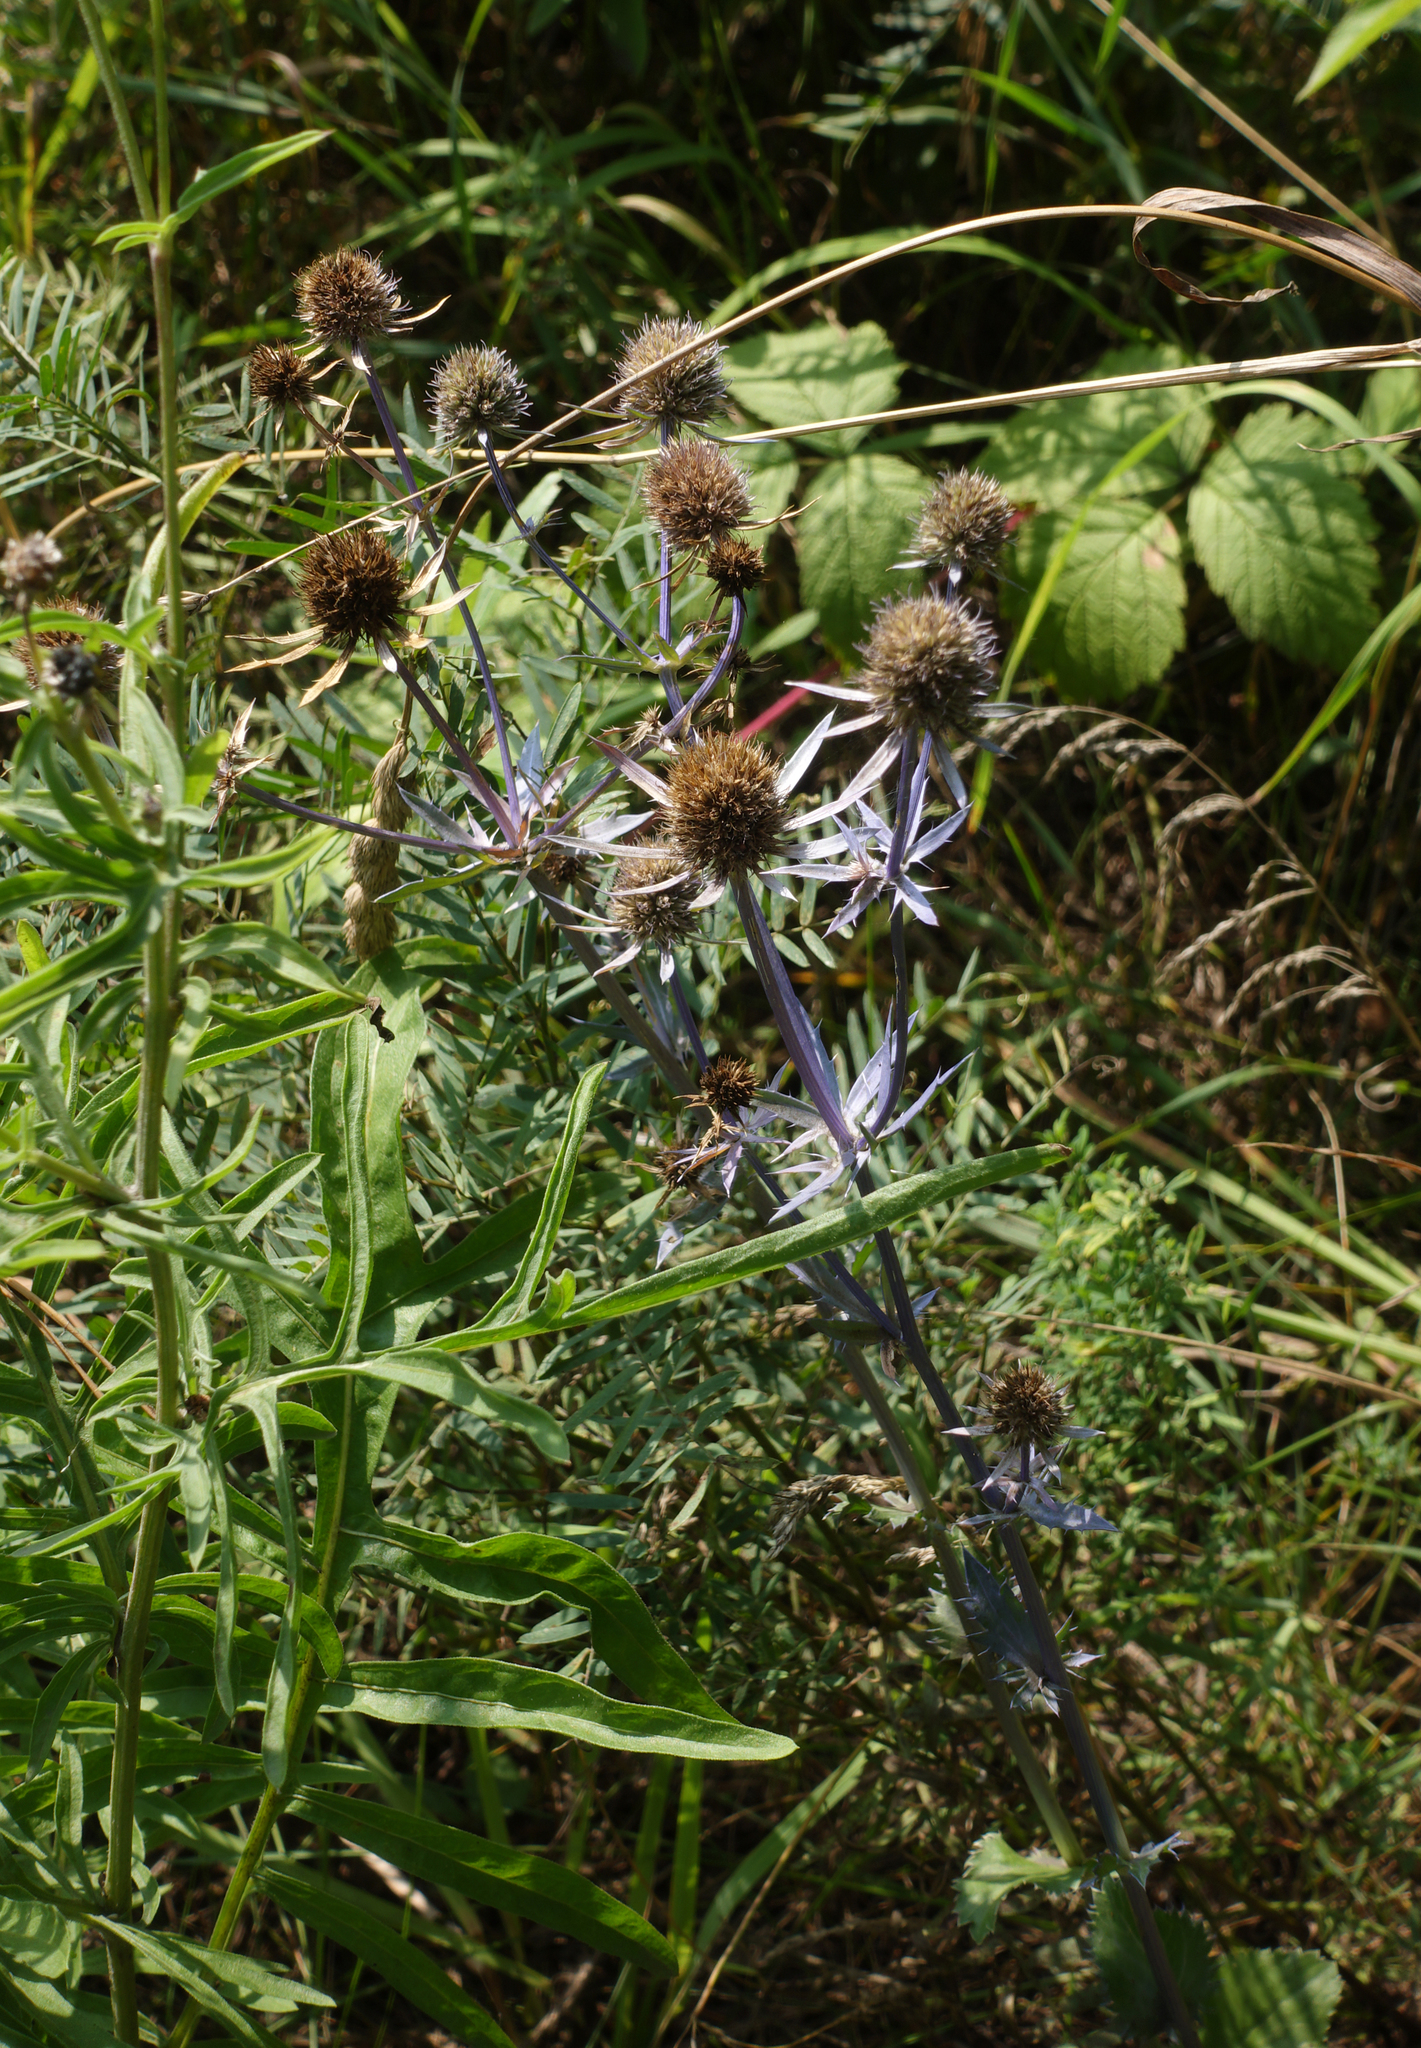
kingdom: Plantae
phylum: Tracheophyta
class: Magnoliopsida
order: Apiales
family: Apiaceae
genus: Eryngium
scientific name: Eryngium planum
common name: Blue eryngo
